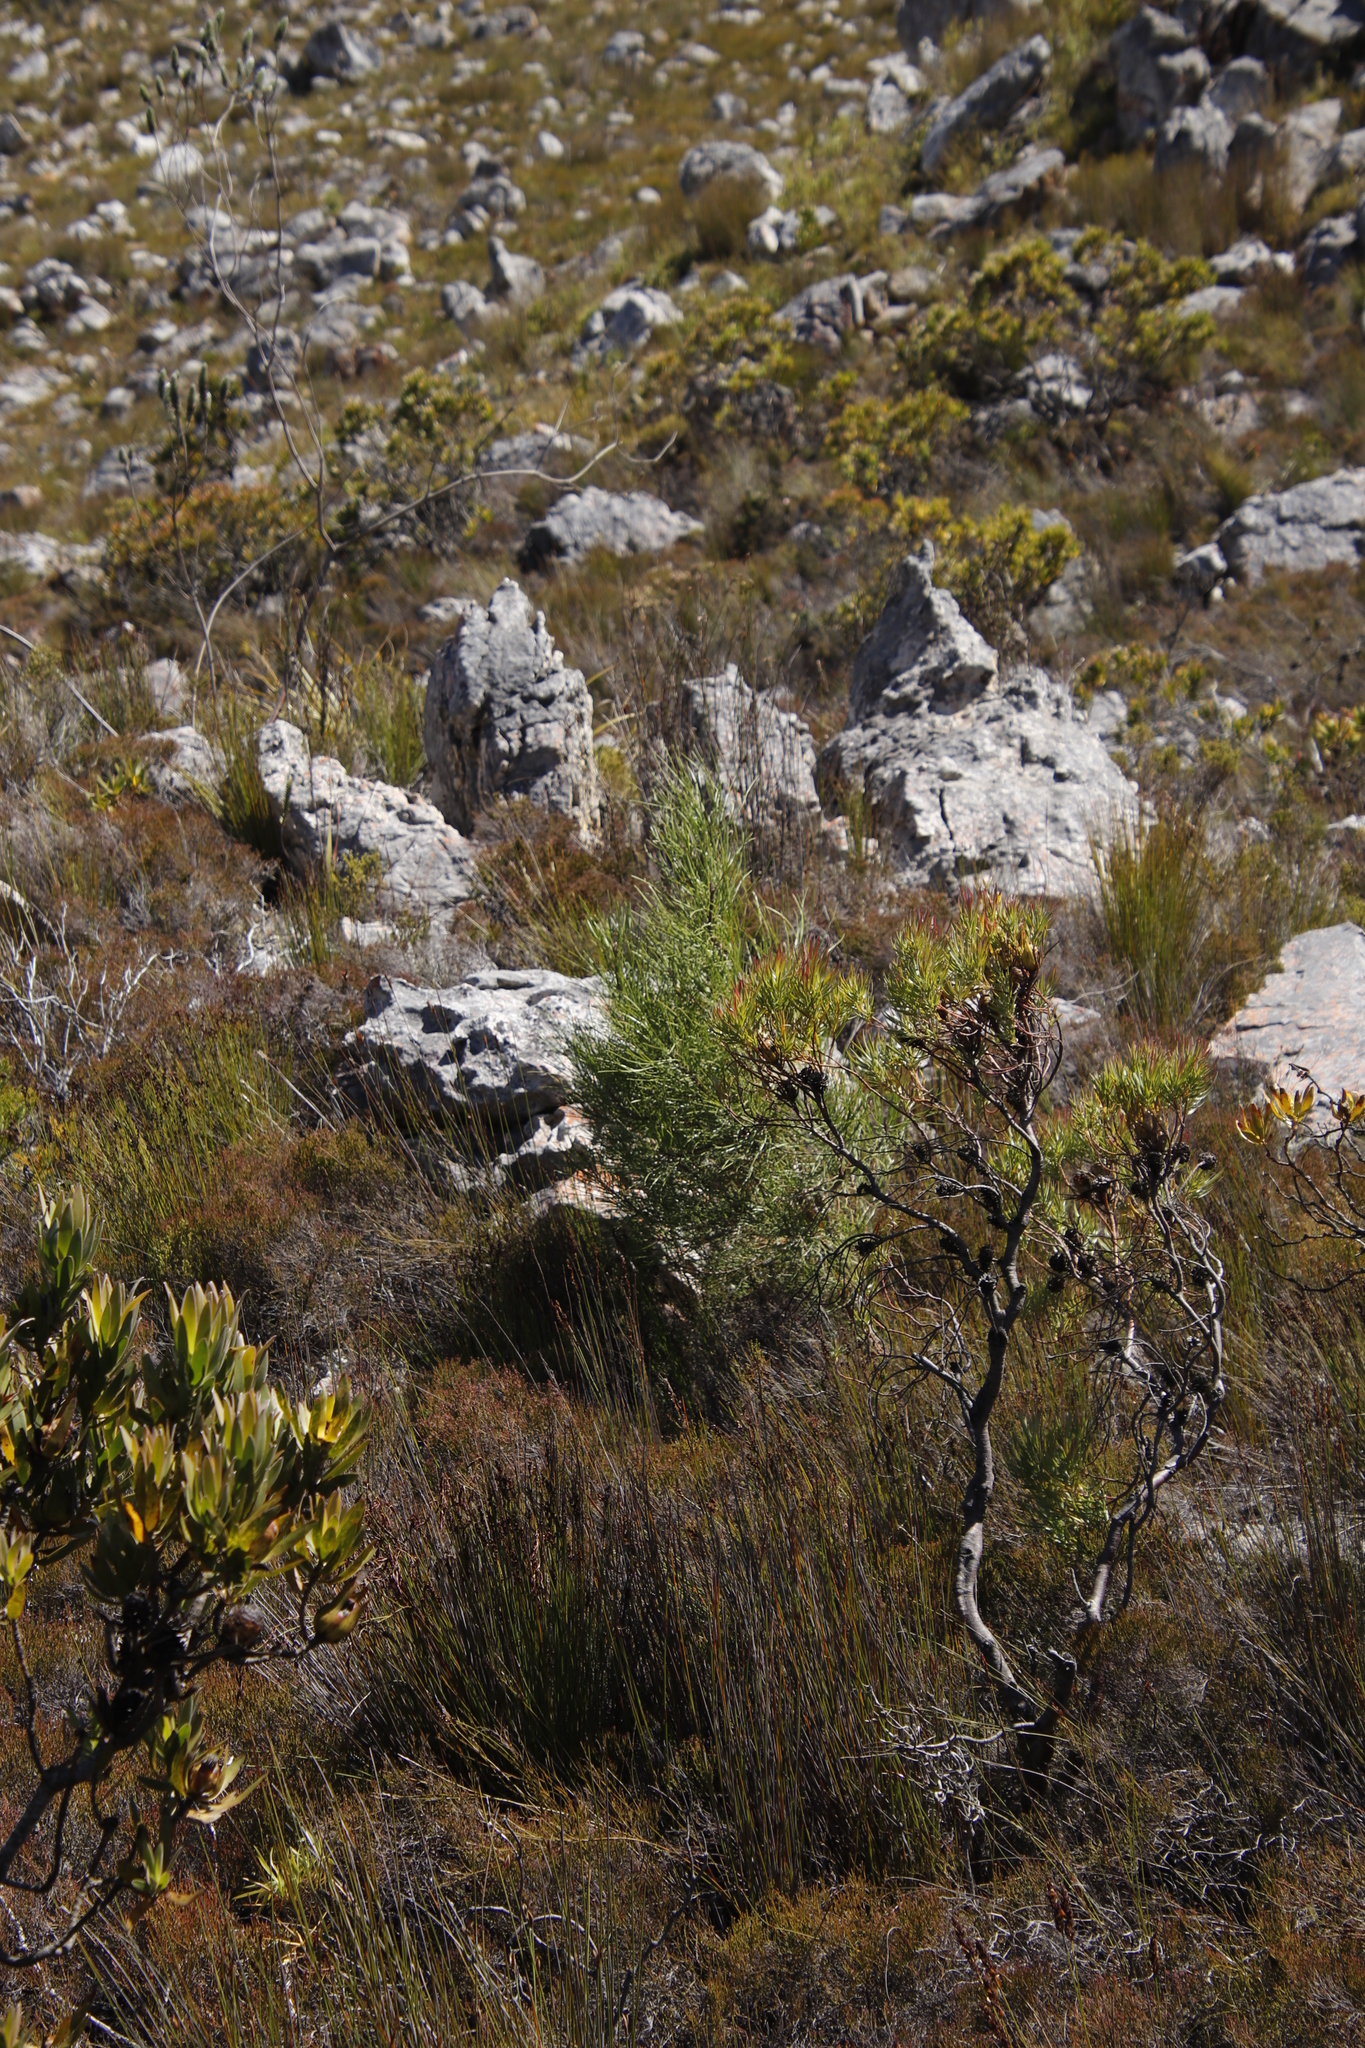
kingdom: Plantae
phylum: Tracheophyta
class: Pinopsida
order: Pinales
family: Pinaceae
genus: Pinus
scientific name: Pinus pinaster
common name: Maritime pine
